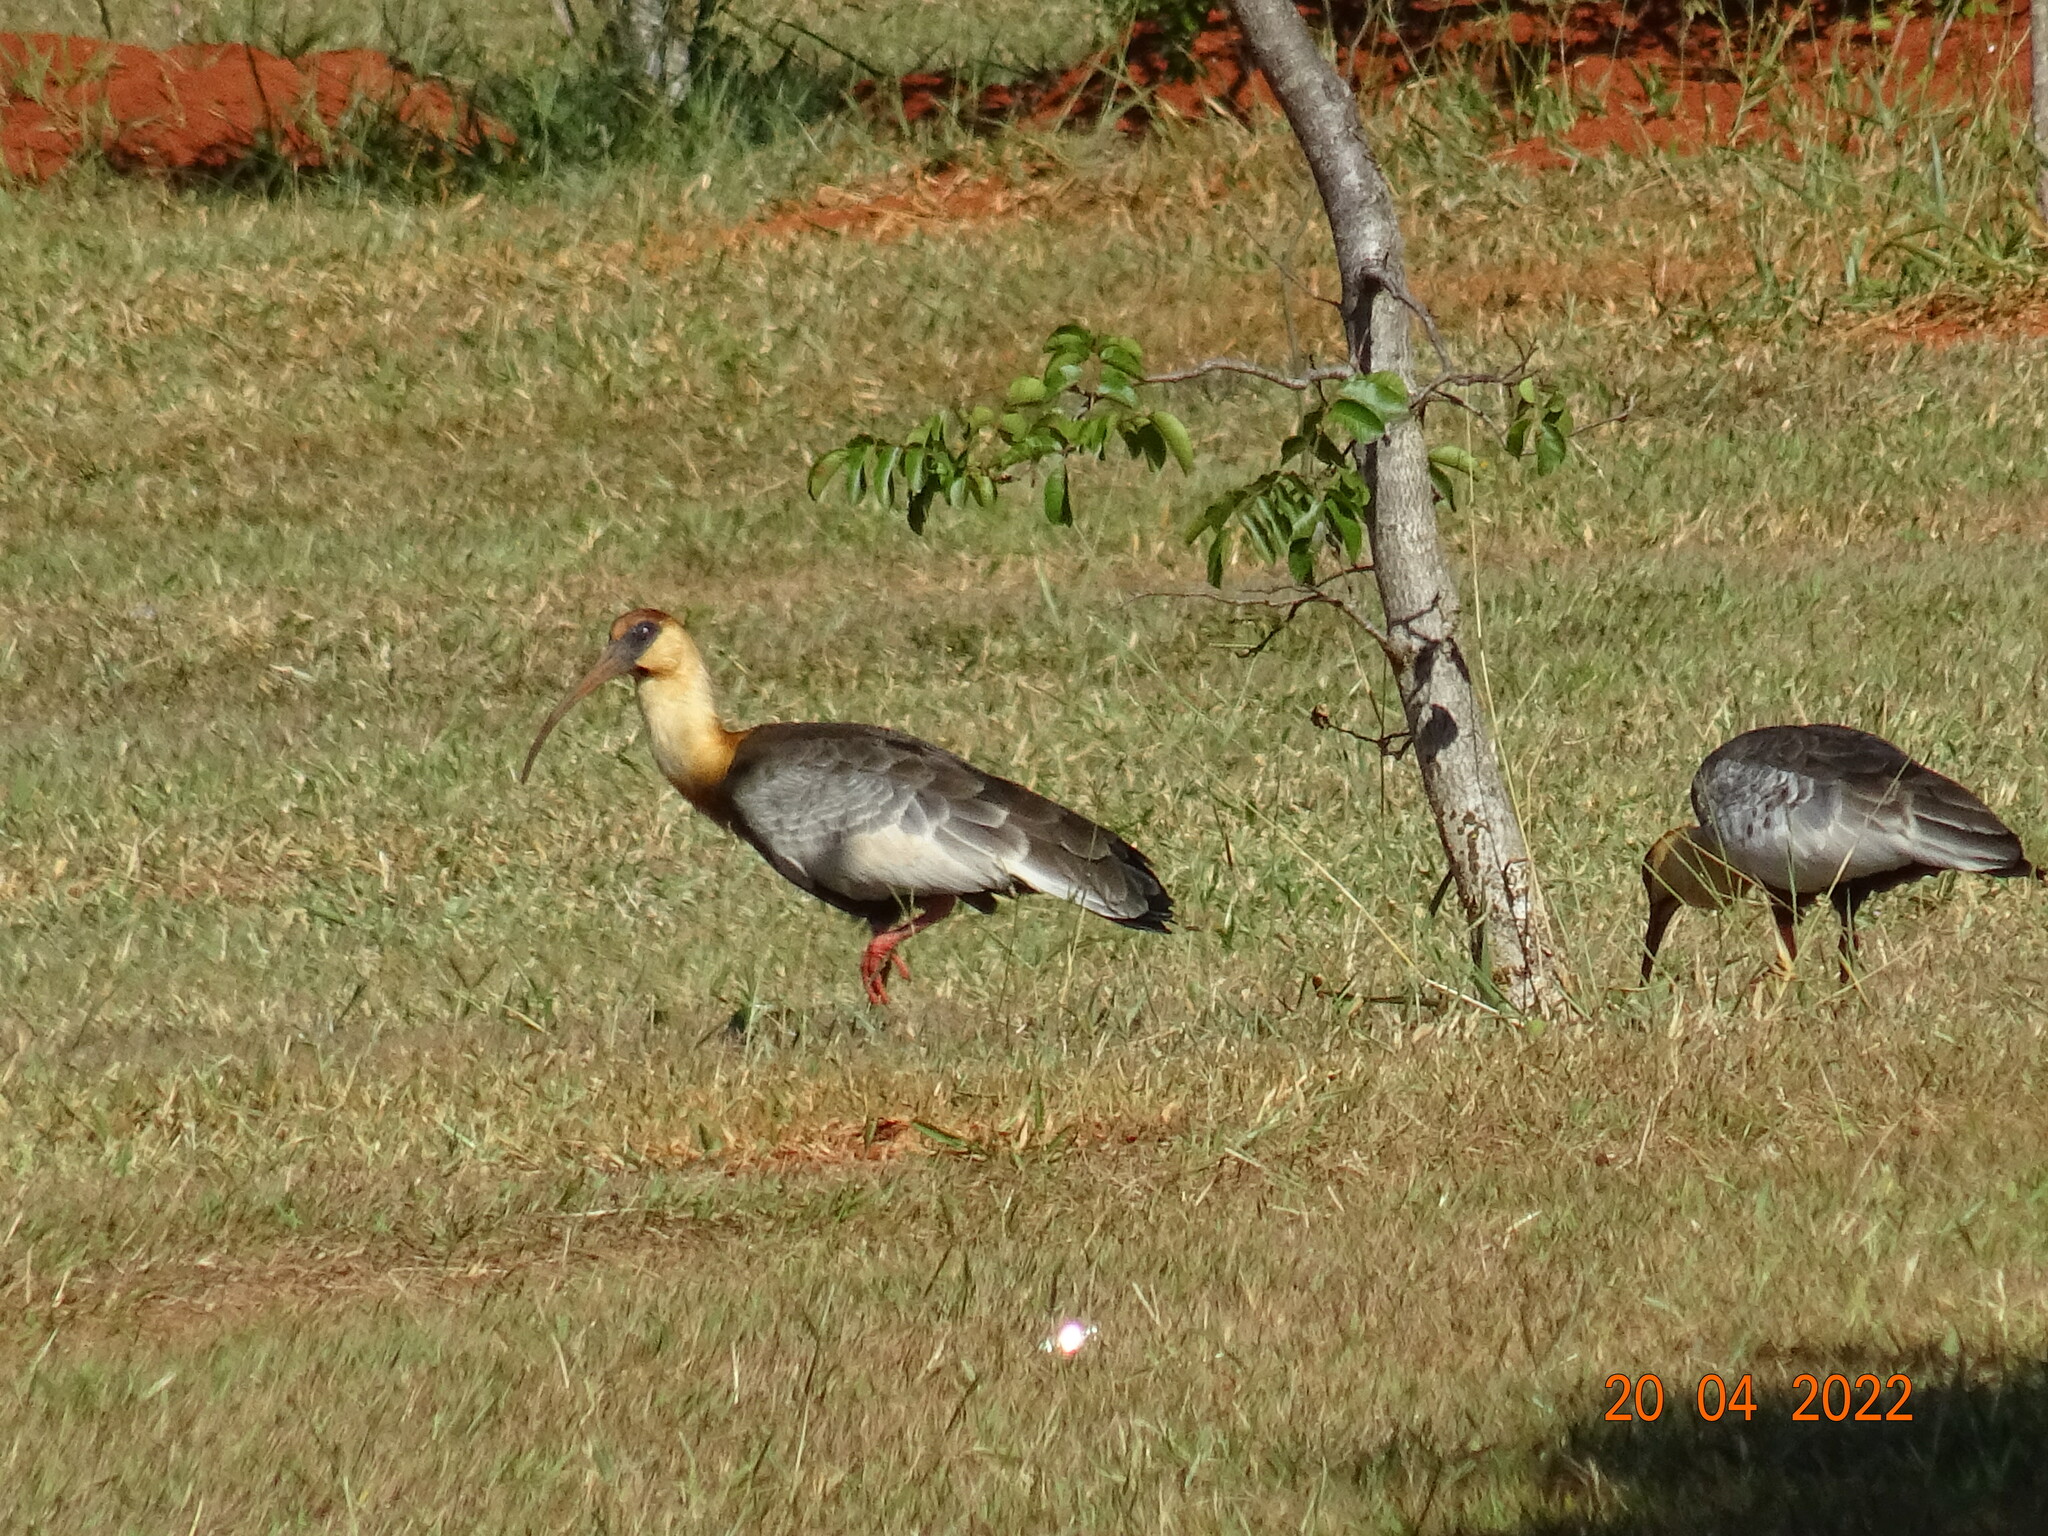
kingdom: Animalia
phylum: Chordata
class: Aves
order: Pelecaniformes
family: Threskiornithidae
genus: Theristicus
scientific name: Theristicus caudatus
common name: Buff-necked ibis
